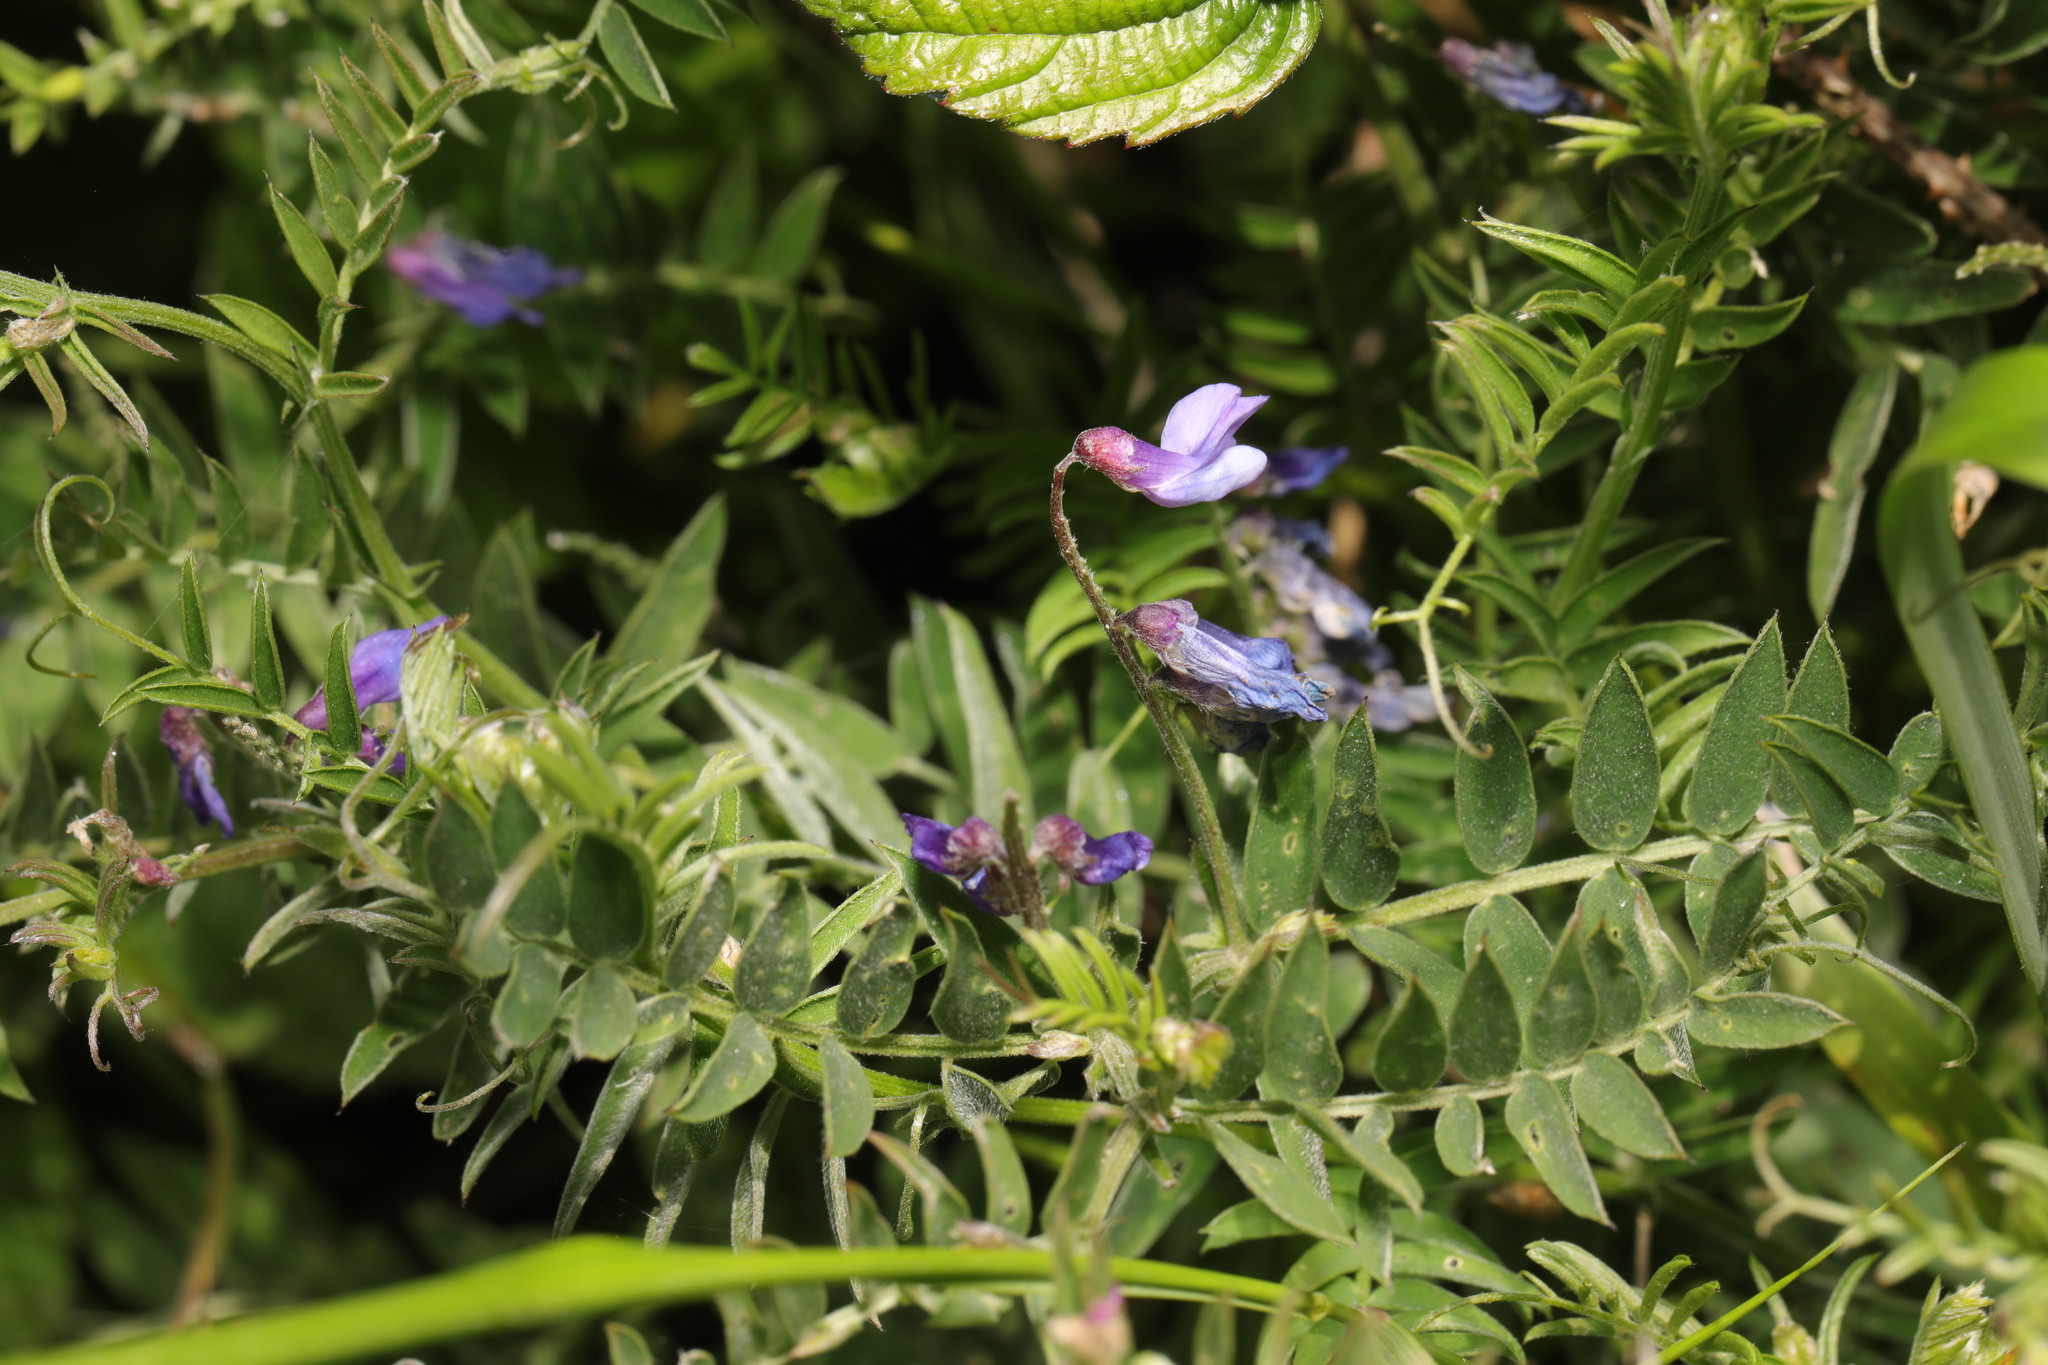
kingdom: Plantae
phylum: Tracheophyta
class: Magnoliopsida
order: Fabales
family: Fabaceae
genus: Vicia
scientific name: Vicia cracca
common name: Bird vetch
